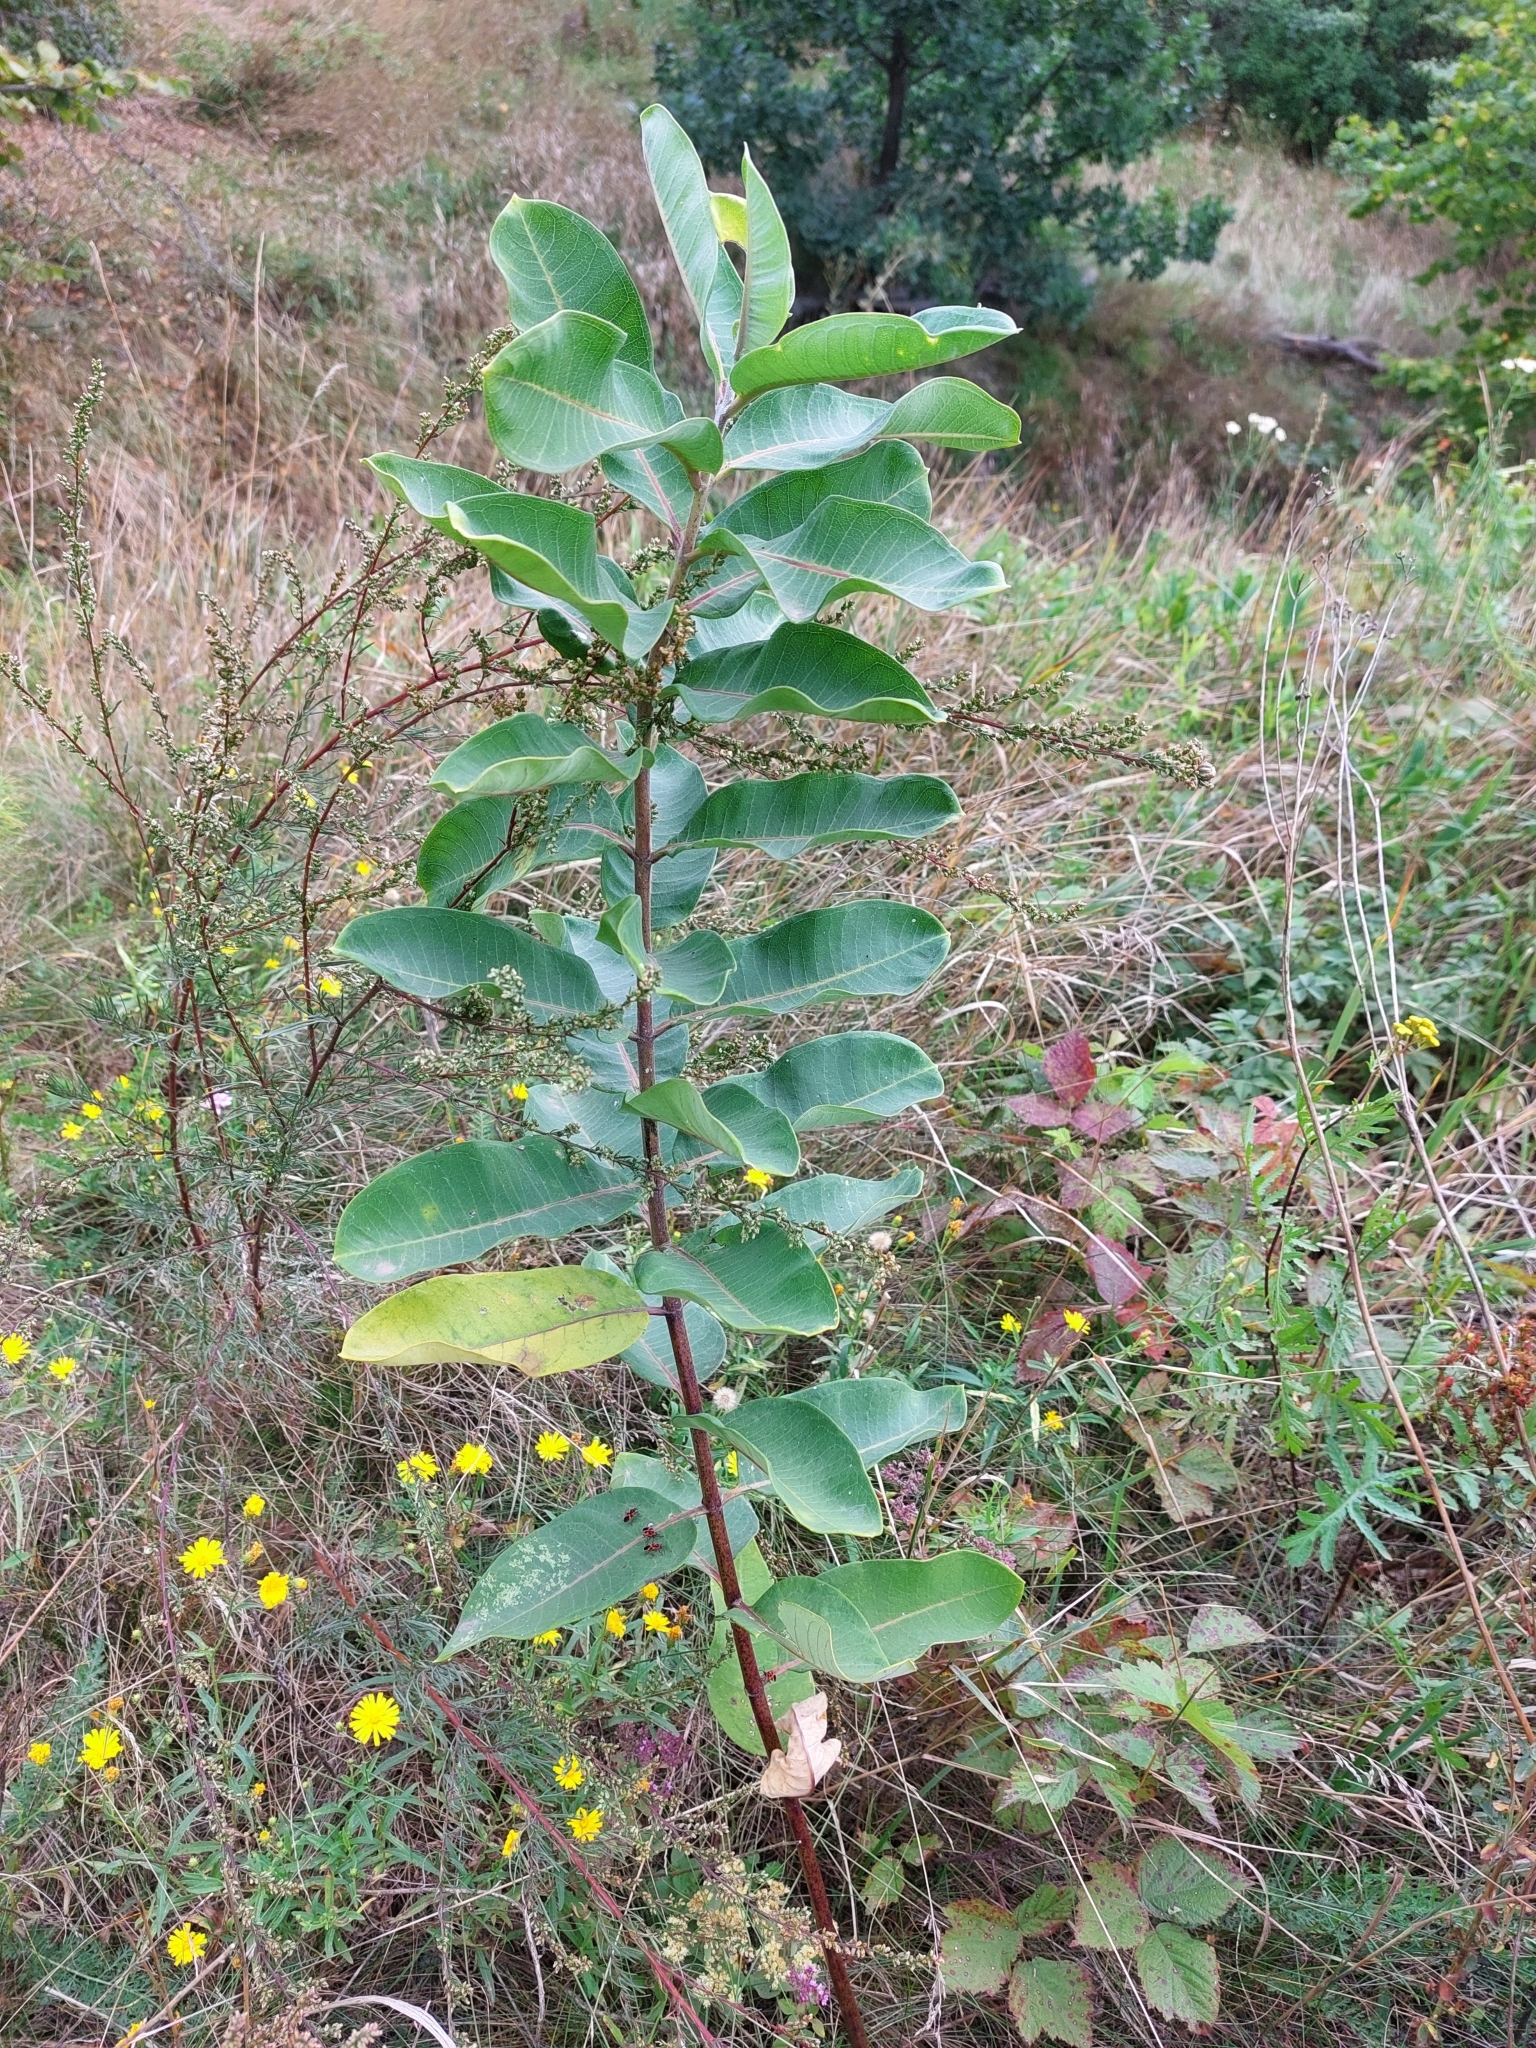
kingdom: Plantae
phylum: Tracheophyta
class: Magnoliopsida
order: Gentianales
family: Apocynaceae
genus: Asclepias
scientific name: Asclepias syriaca
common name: Common milkweed
